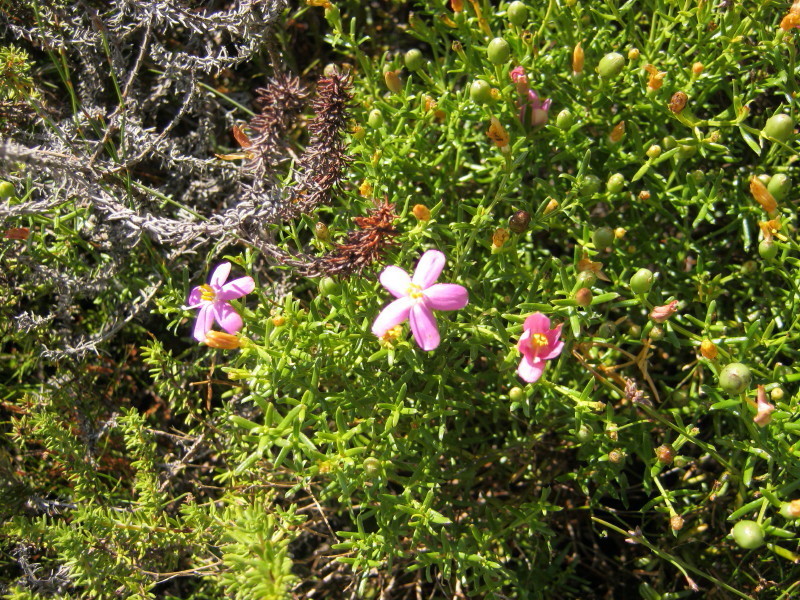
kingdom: Plantae
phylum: Tracheophyta
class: Magnoliopsida
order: Gentianales
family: Gentianaceae
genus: Chironia
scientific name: Chironia baccifera
